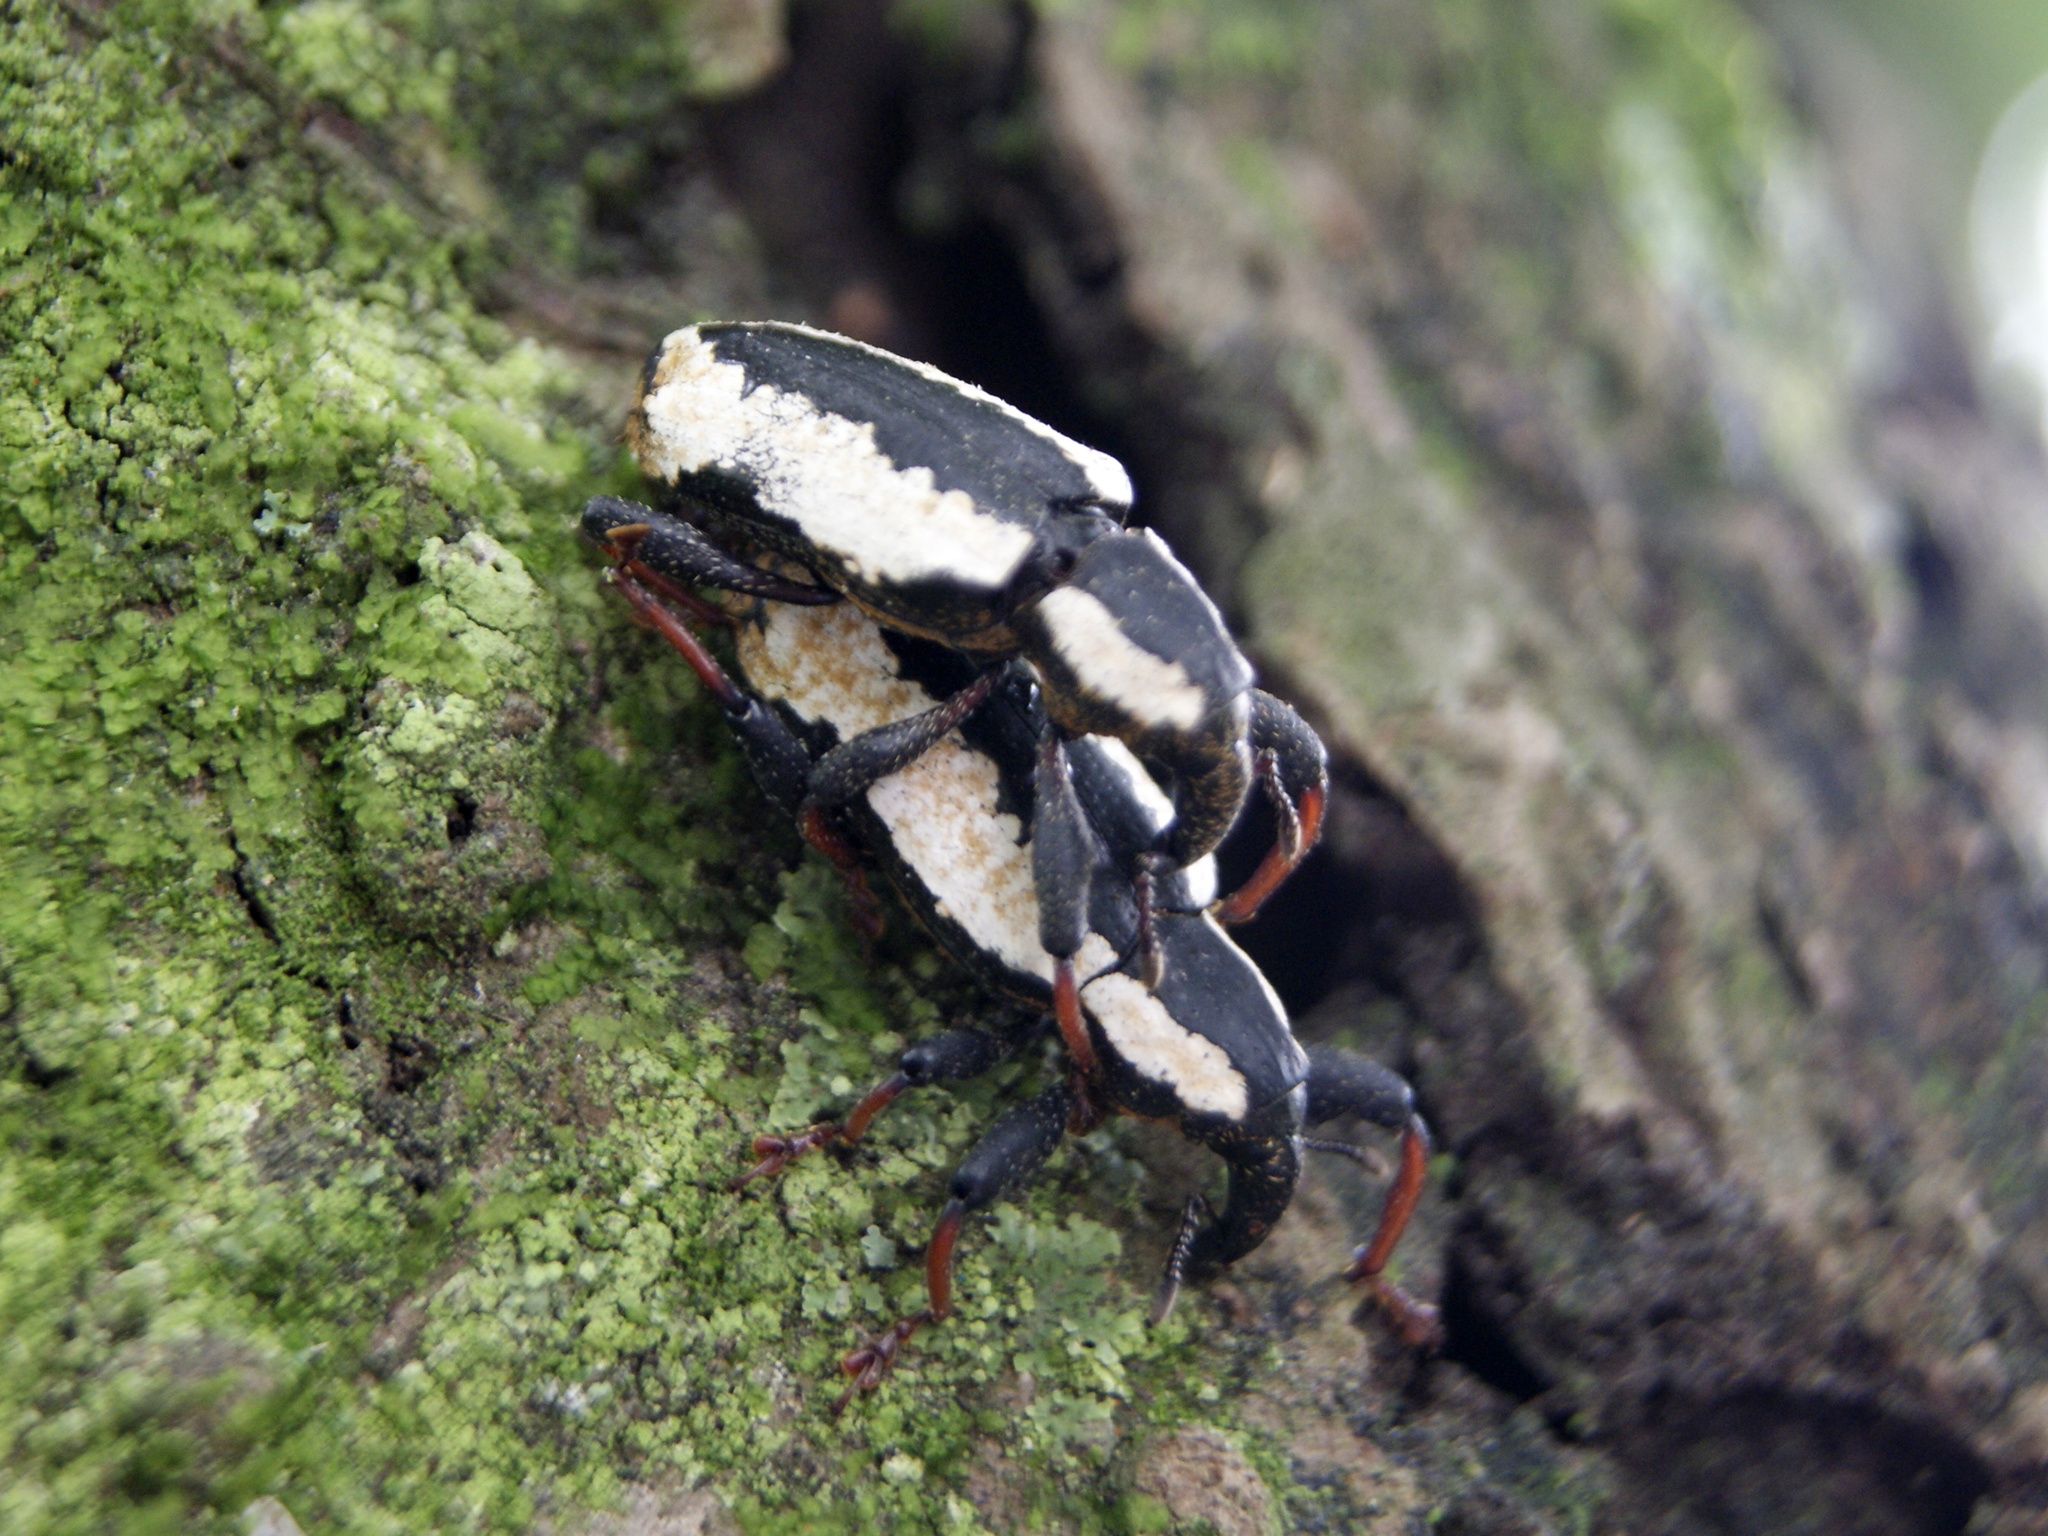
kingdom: Animalia
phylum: Arthropoda
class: Insecta
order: Coleoptera
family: Curculionidae
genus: Heilipus
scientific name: Heilipus gibbus
